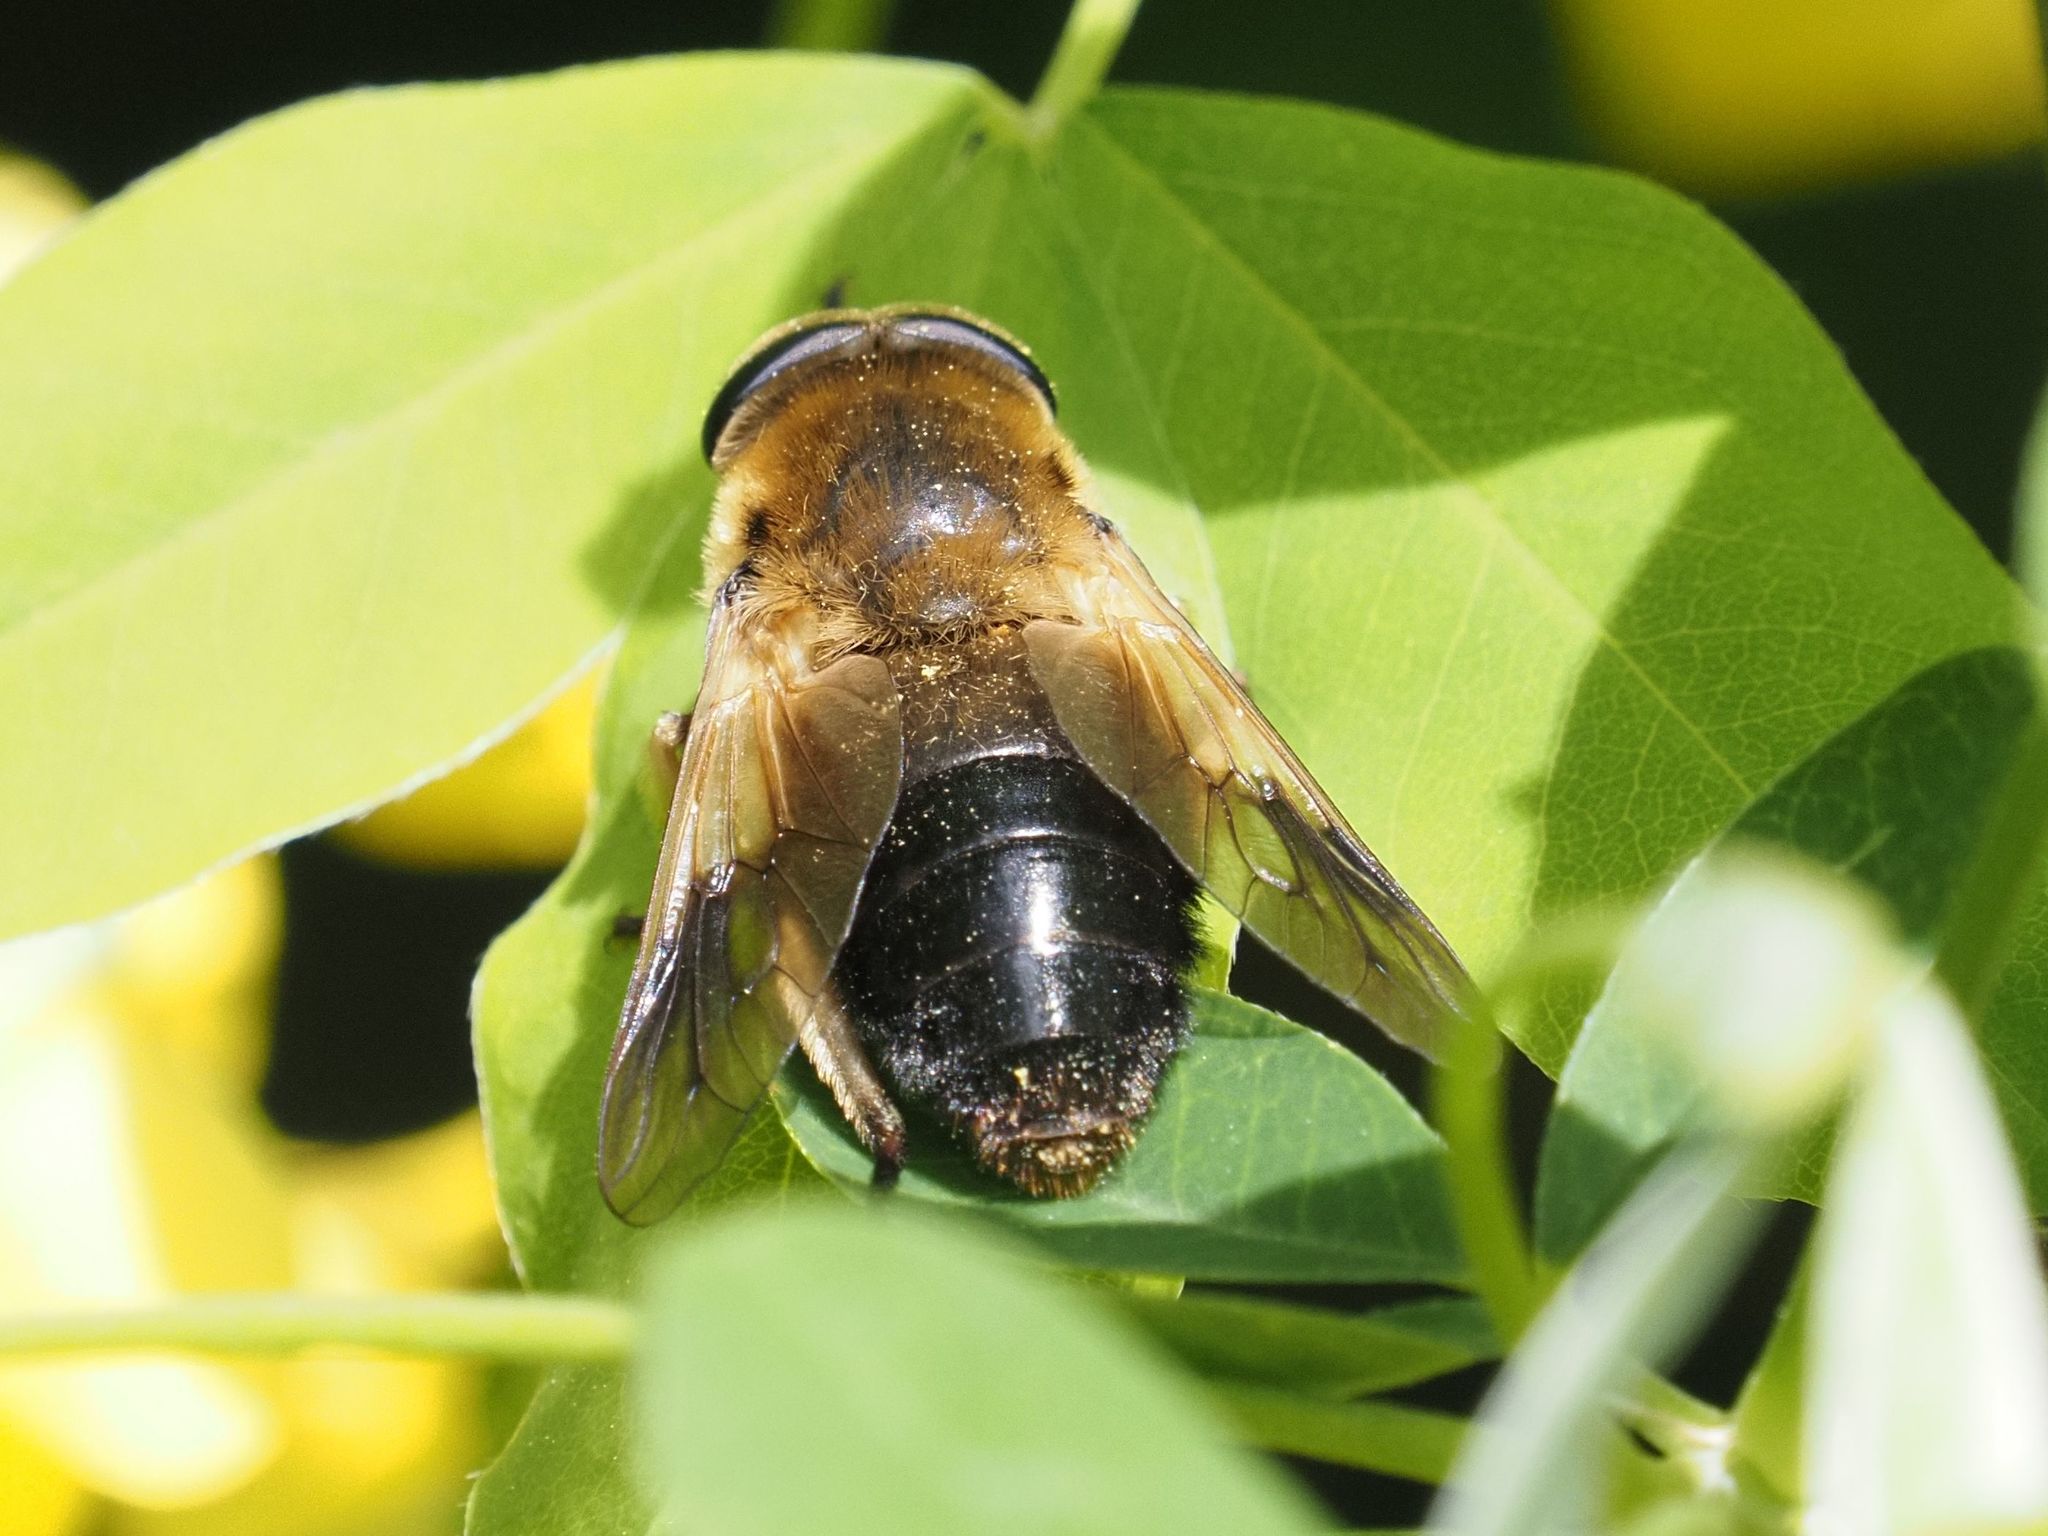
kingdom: Animalia
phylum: Arthropoda
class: Insecta
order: Diptera
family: Tabanidae
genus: Therioplectes
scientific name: Therioplectes gigas
